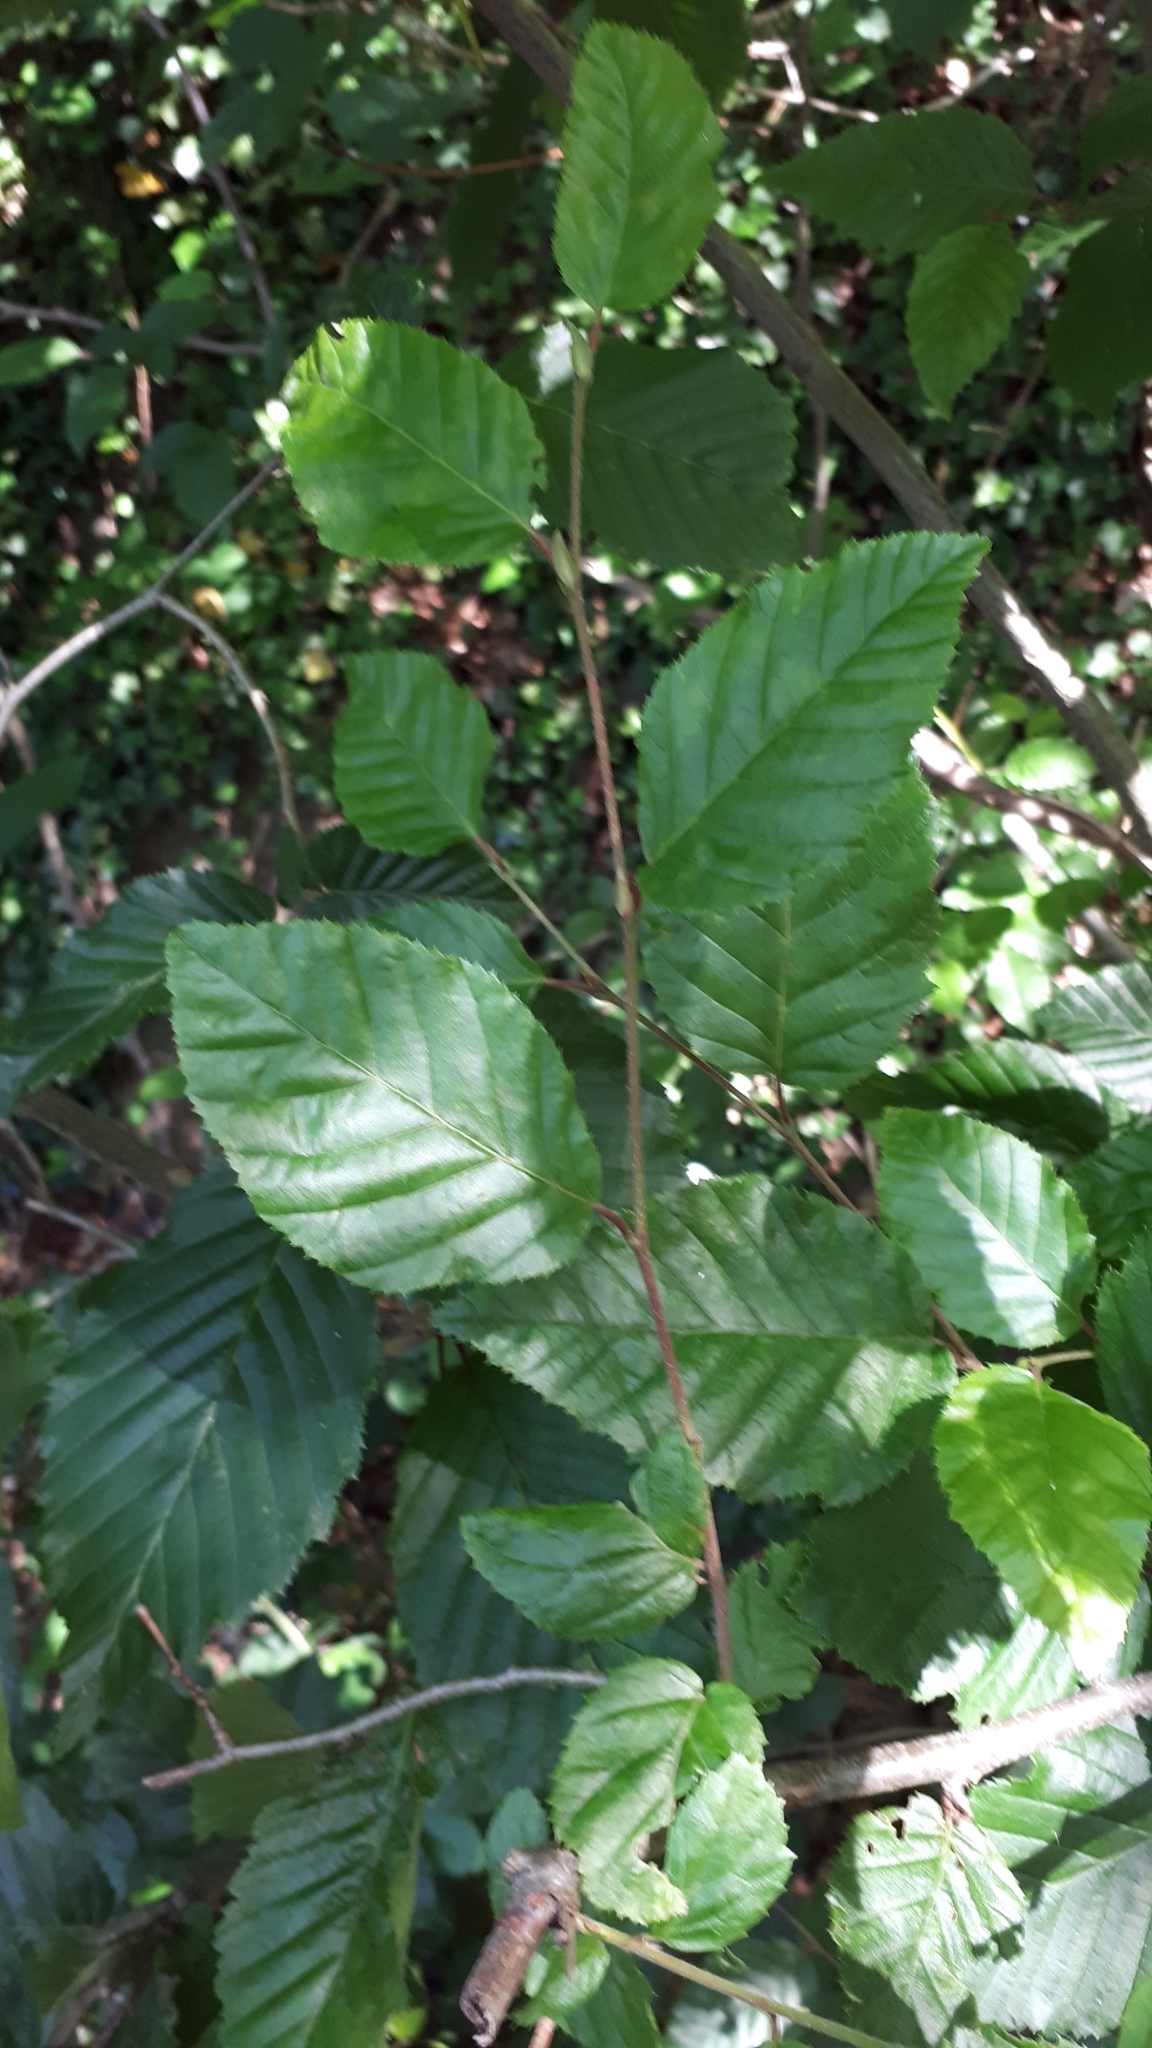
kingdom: Plantae
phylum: Tracheophyta
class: Magnoliopsida
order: Fagales
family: Betulaceae
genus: Carpinus
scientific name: Carpinus betulus
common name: Hornbeam
